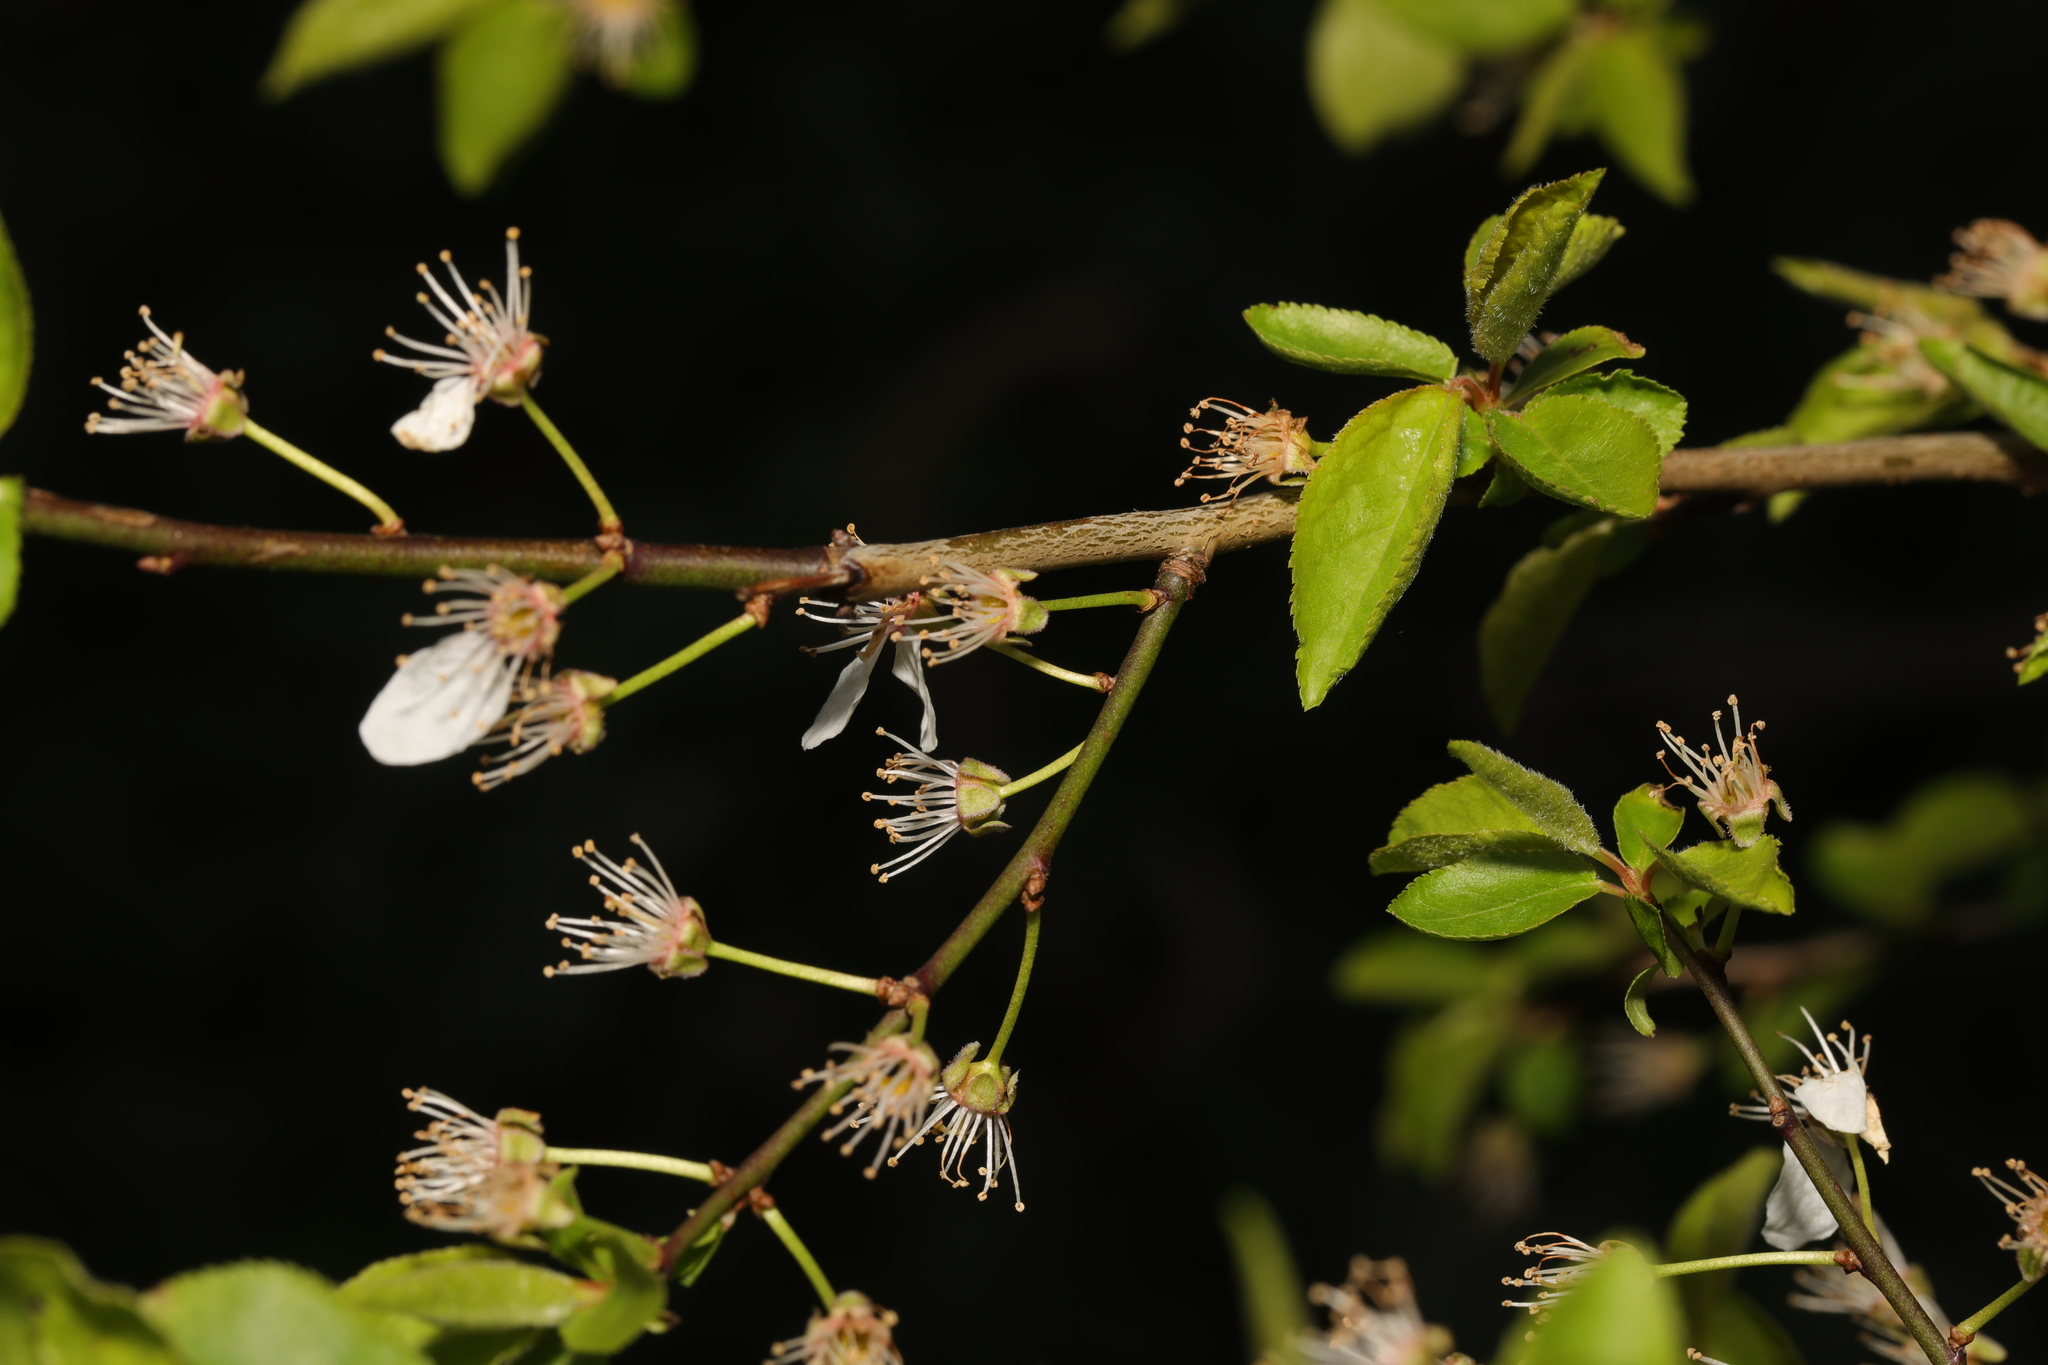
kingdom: Plantae
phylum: Tracheophyta
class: Magnoliopsida
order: Rosales
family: Rosaceae
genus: Prunus
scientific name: Prunus cerasifera
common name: Cherry plum
